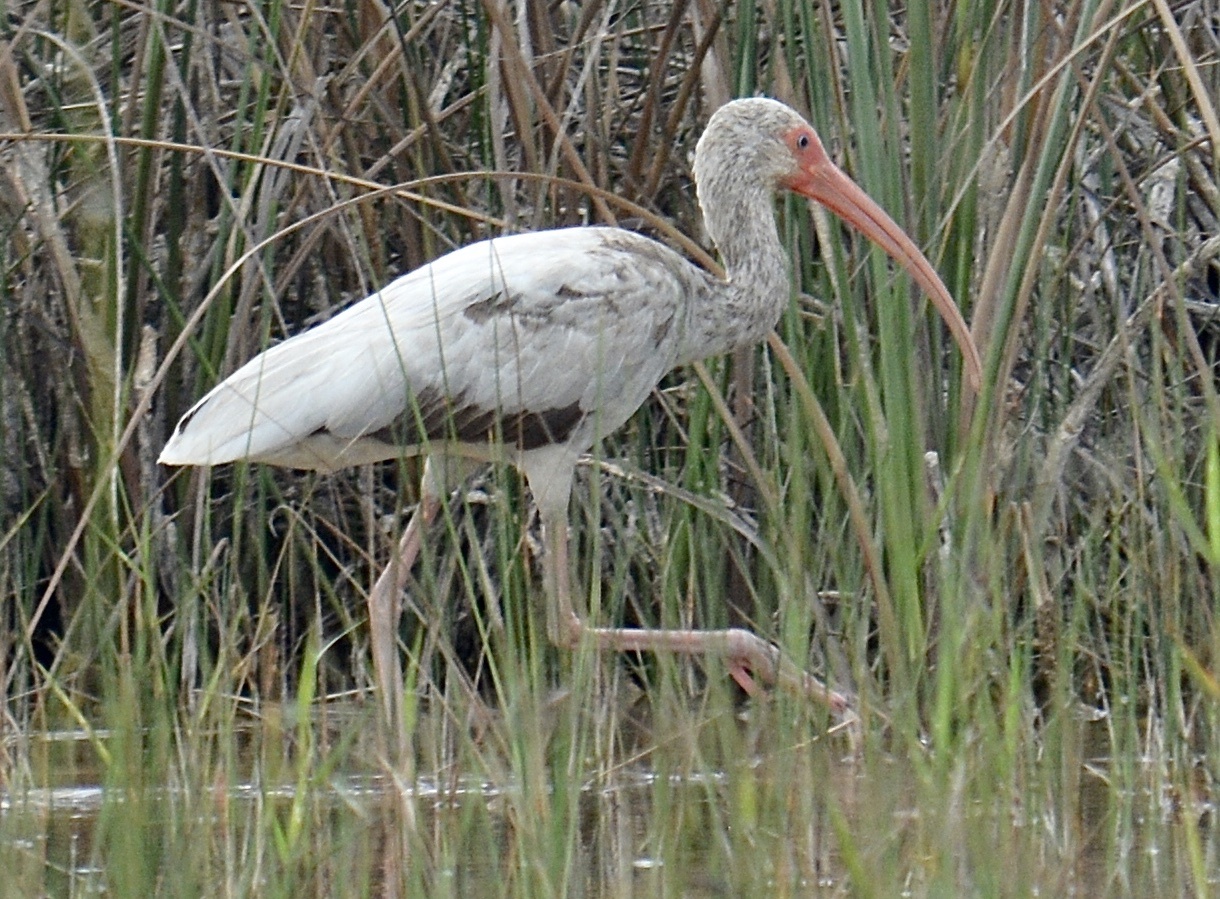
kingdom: Animalia
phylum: Chordata
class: Aves
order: Pelecaniformes
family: Threskiornithidae
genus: Eudocimus
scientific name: Eudocimus albus
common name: White ibis
